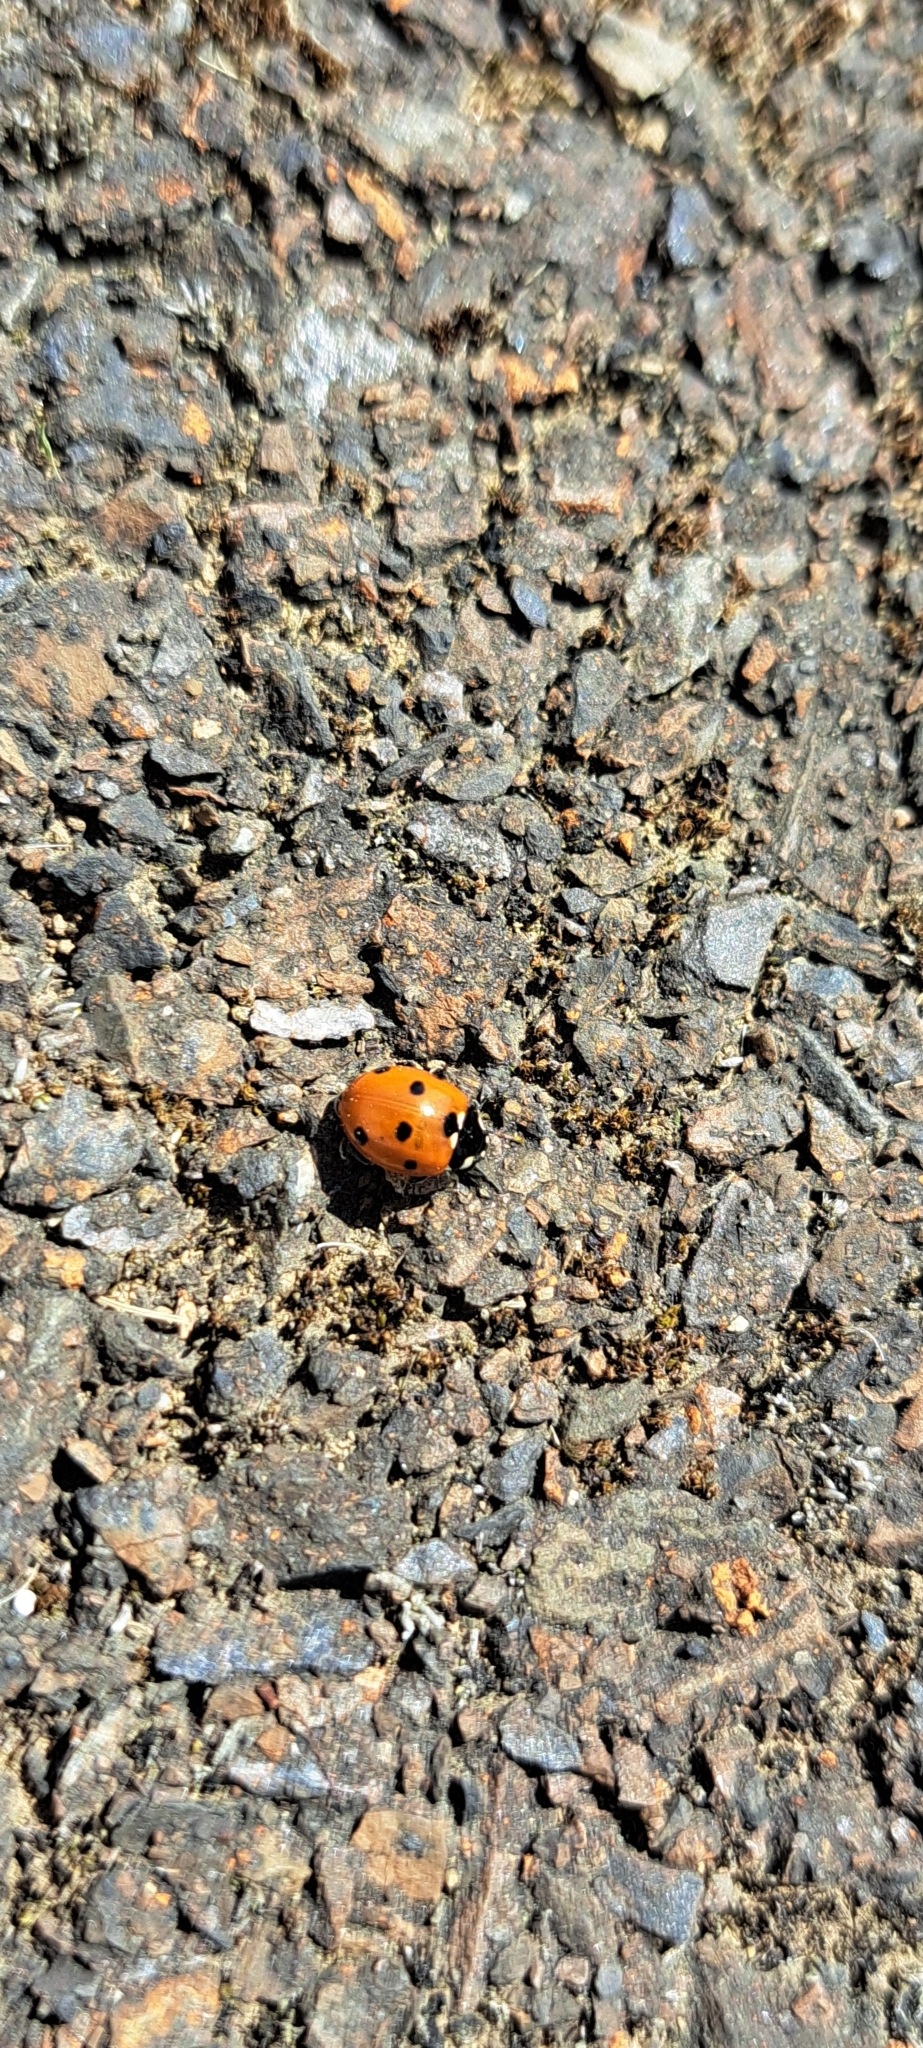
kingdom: Animalia
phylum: Arthropoda
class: Insecta
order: Coleoptera
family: Coccinellidae
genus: Coccinella
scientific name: Coccinella septempunctata
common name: Sevenspotted lady beetle
